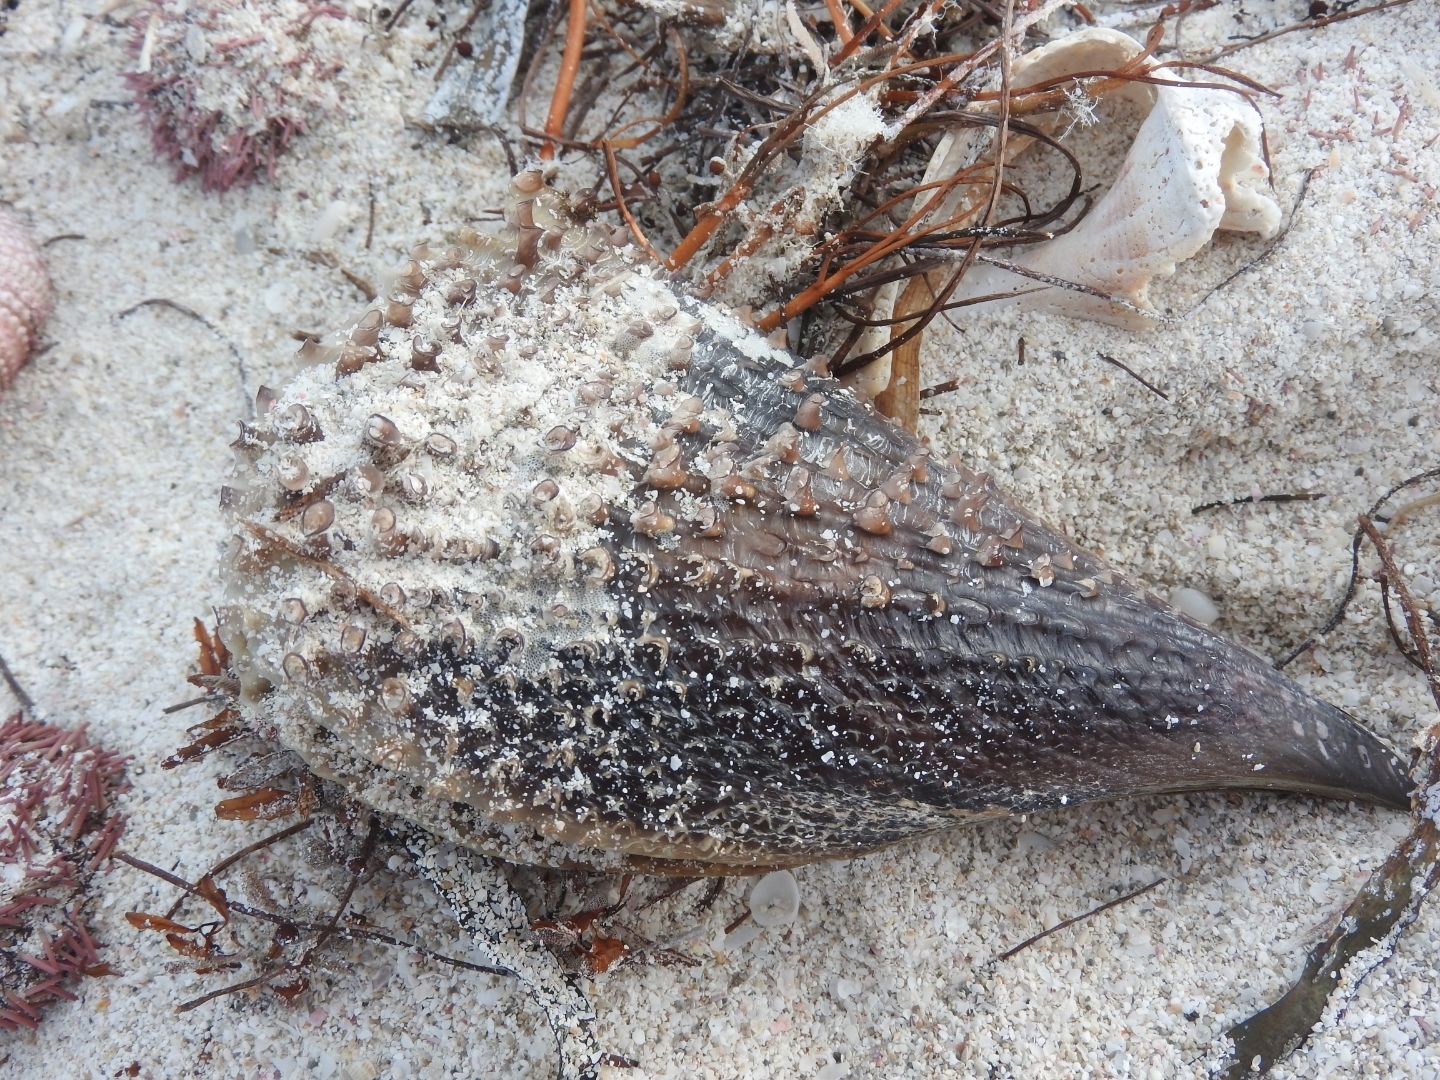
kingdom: Animalia
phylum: Mollusca
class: Bivalvia
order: Ostreida
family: Pinnidae
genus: Atrina
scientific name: Atrina rigida
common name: Stiff penshell
